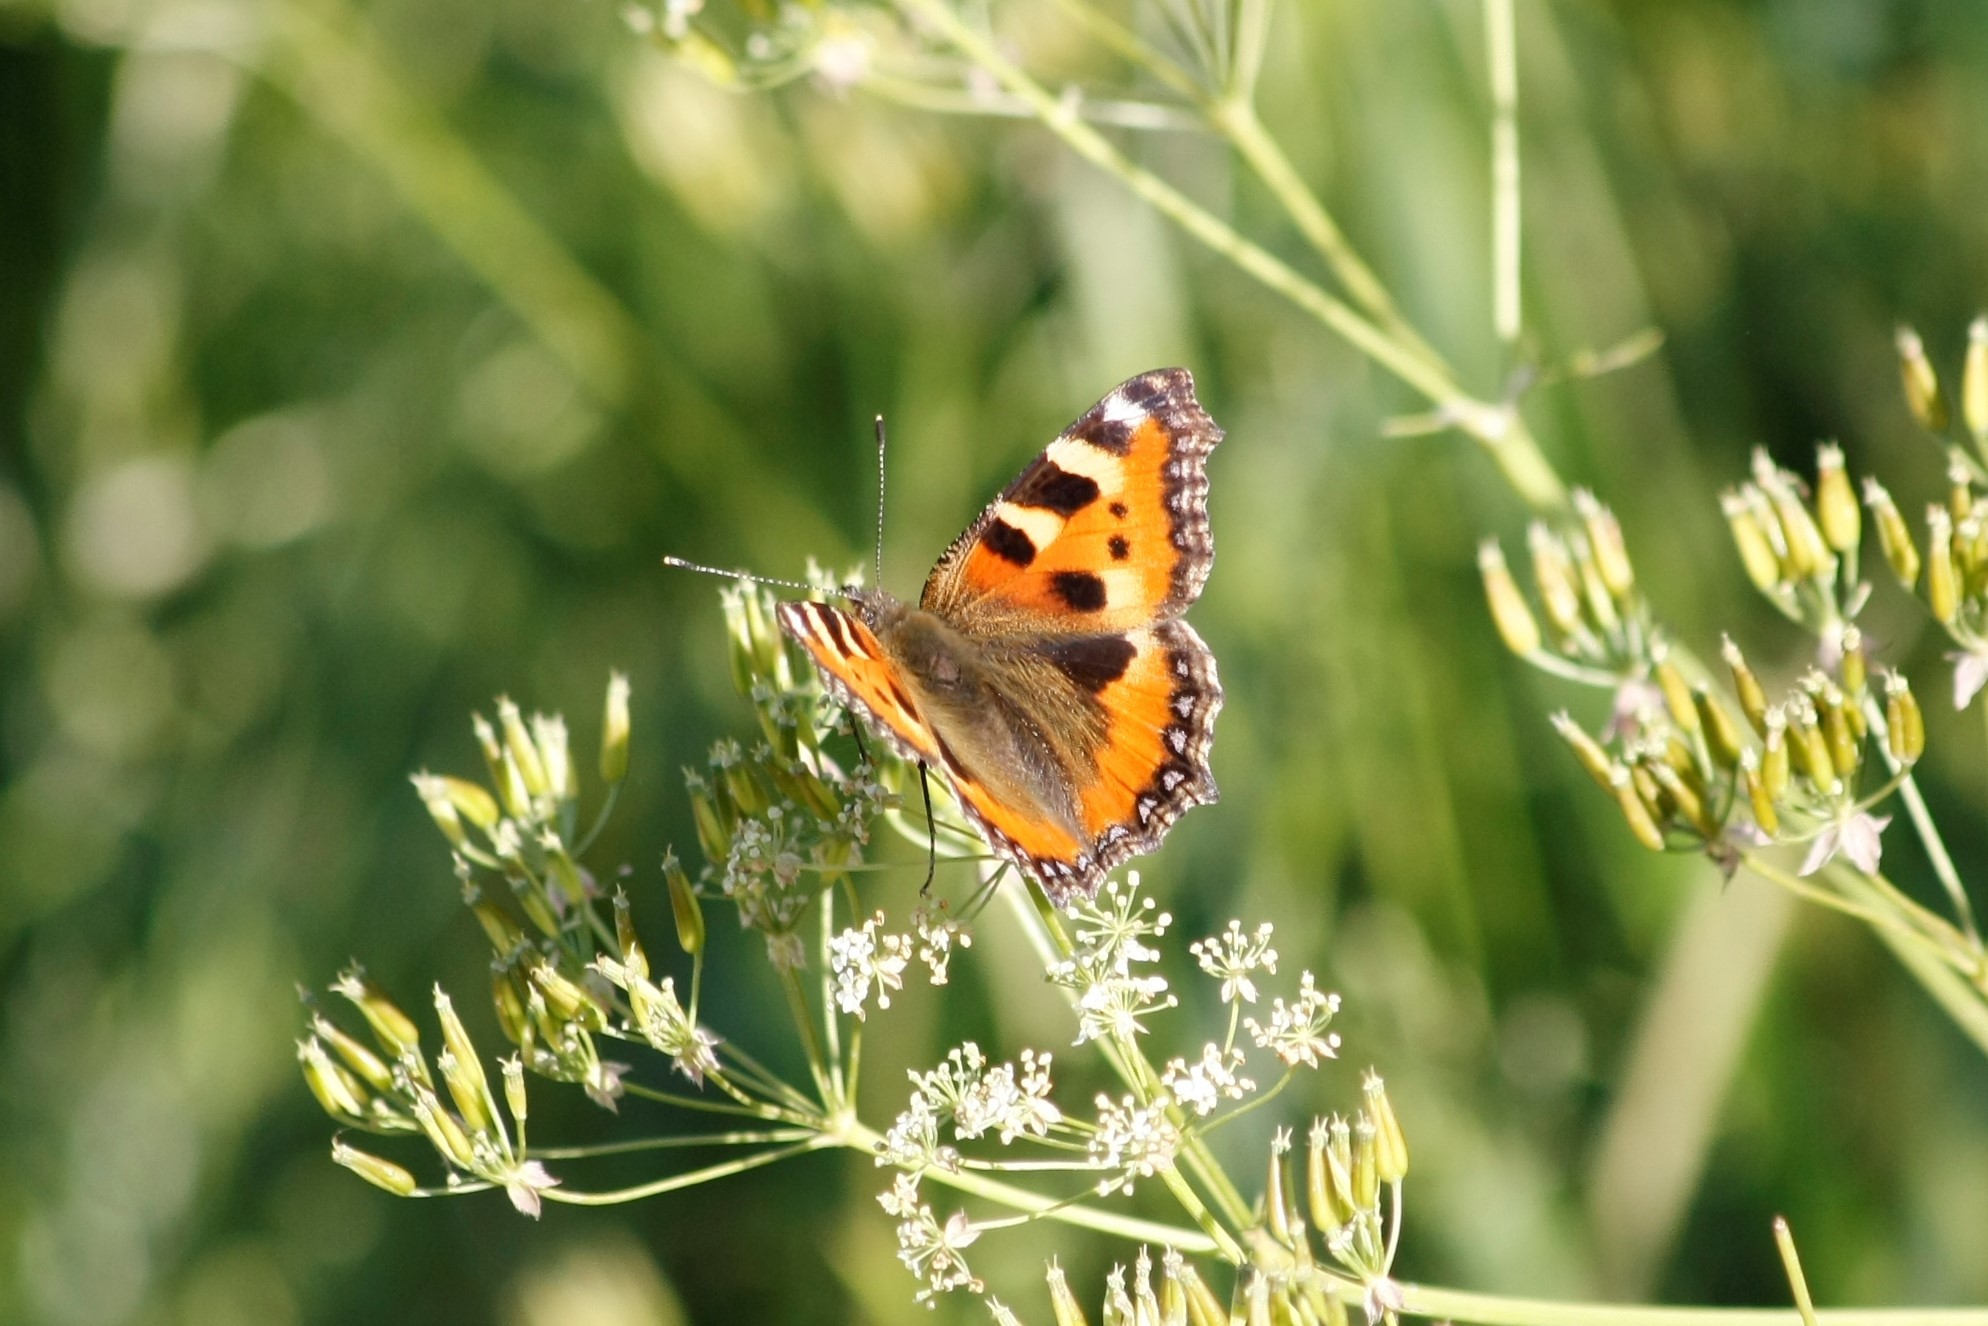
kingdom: Animalia
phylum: Arthropoda
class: Insecta
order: Lepidoptera
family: Nymphalidae
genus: Aglais
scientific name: Aglais urticae
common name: Small tortoiseshell
